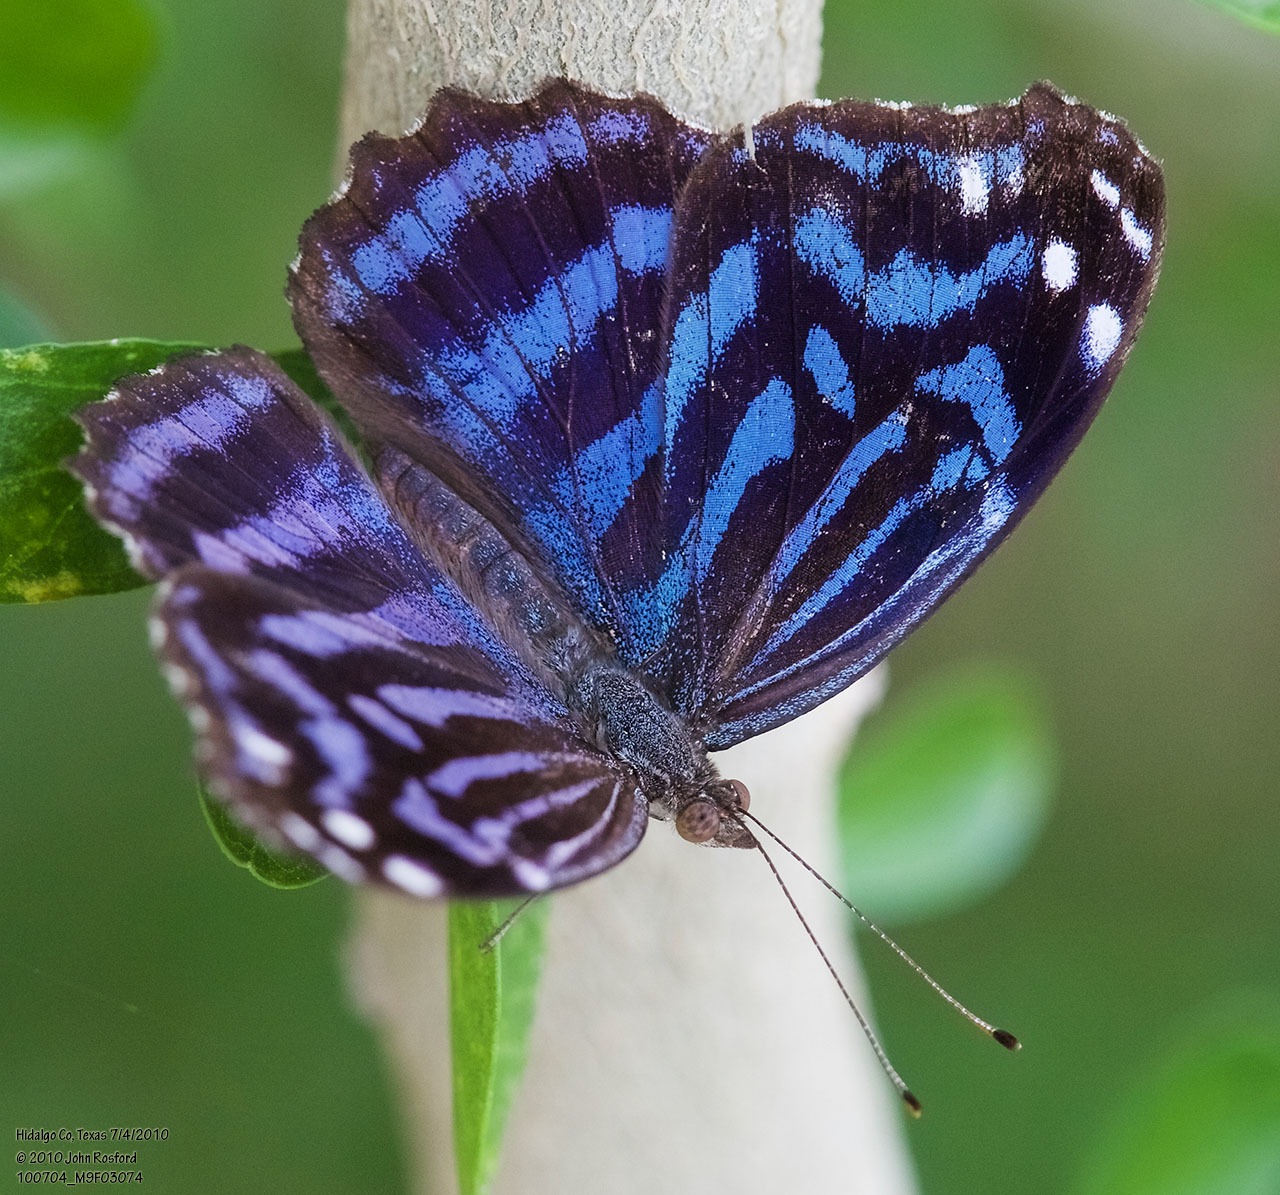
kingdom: Animalia
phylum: Arthropoda
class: Insecta
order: Lepidoptera
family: Nymphalidae
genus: Myscelia
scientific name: Myscelia ethusa
